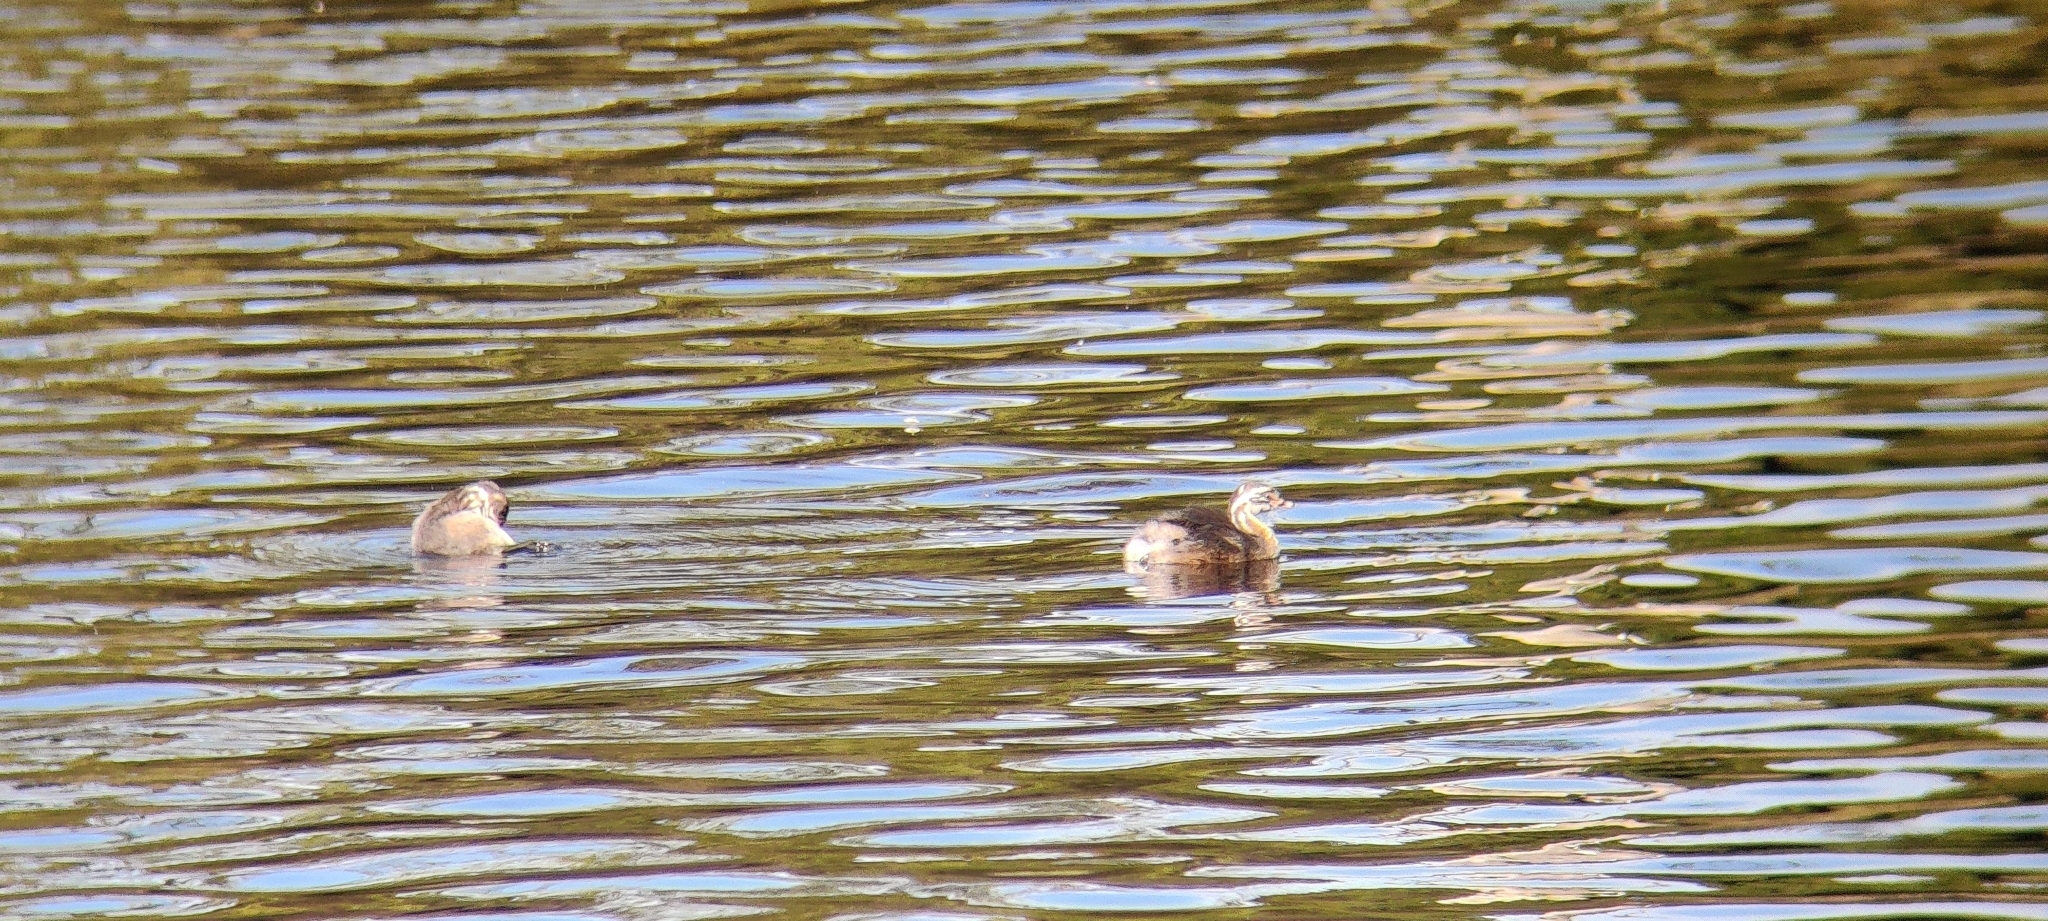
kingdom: Animalia
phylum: Chordata
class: Aves
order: Podicipediformes
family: Podicipedidae
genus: Tachybaptus
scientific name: Tachybaptus novaehollandiae
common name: Australasian grebe
